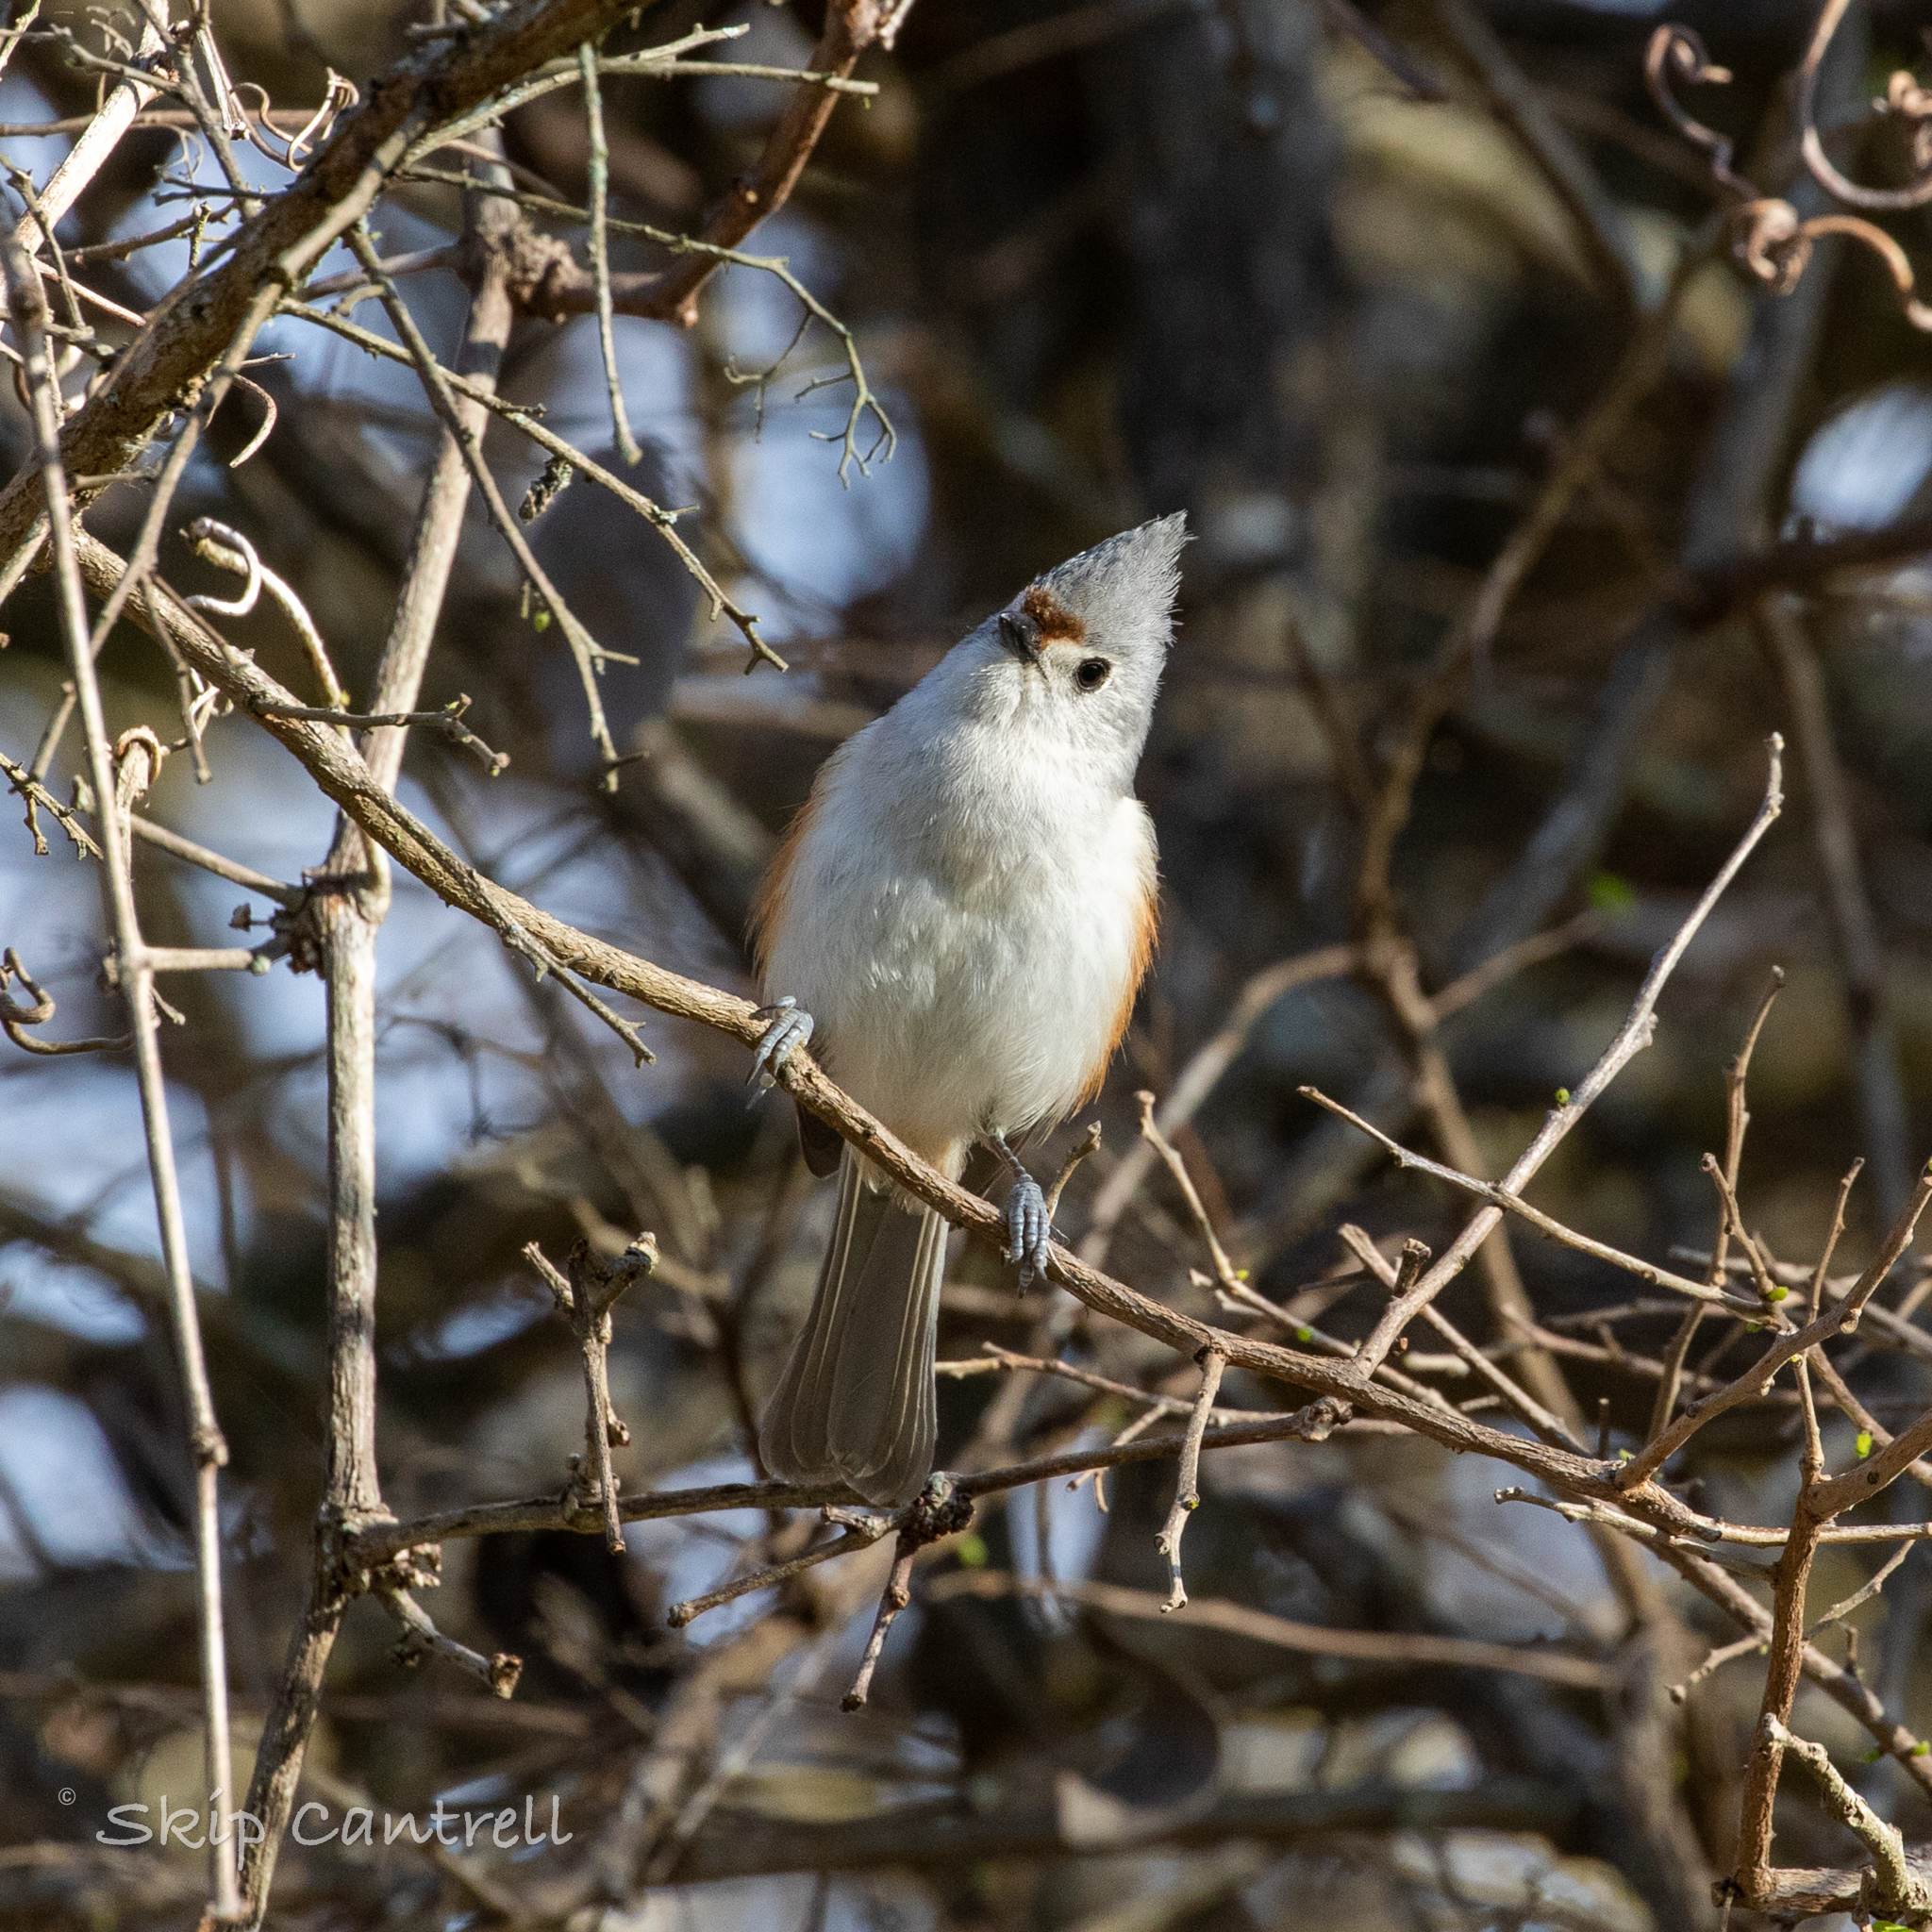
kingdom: Animalia
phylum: Chordata
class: Aves
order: Passeriformes
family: Paridae
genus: Baeolophus
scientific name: Baeolophus bicolor
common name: Tufted titmouse
